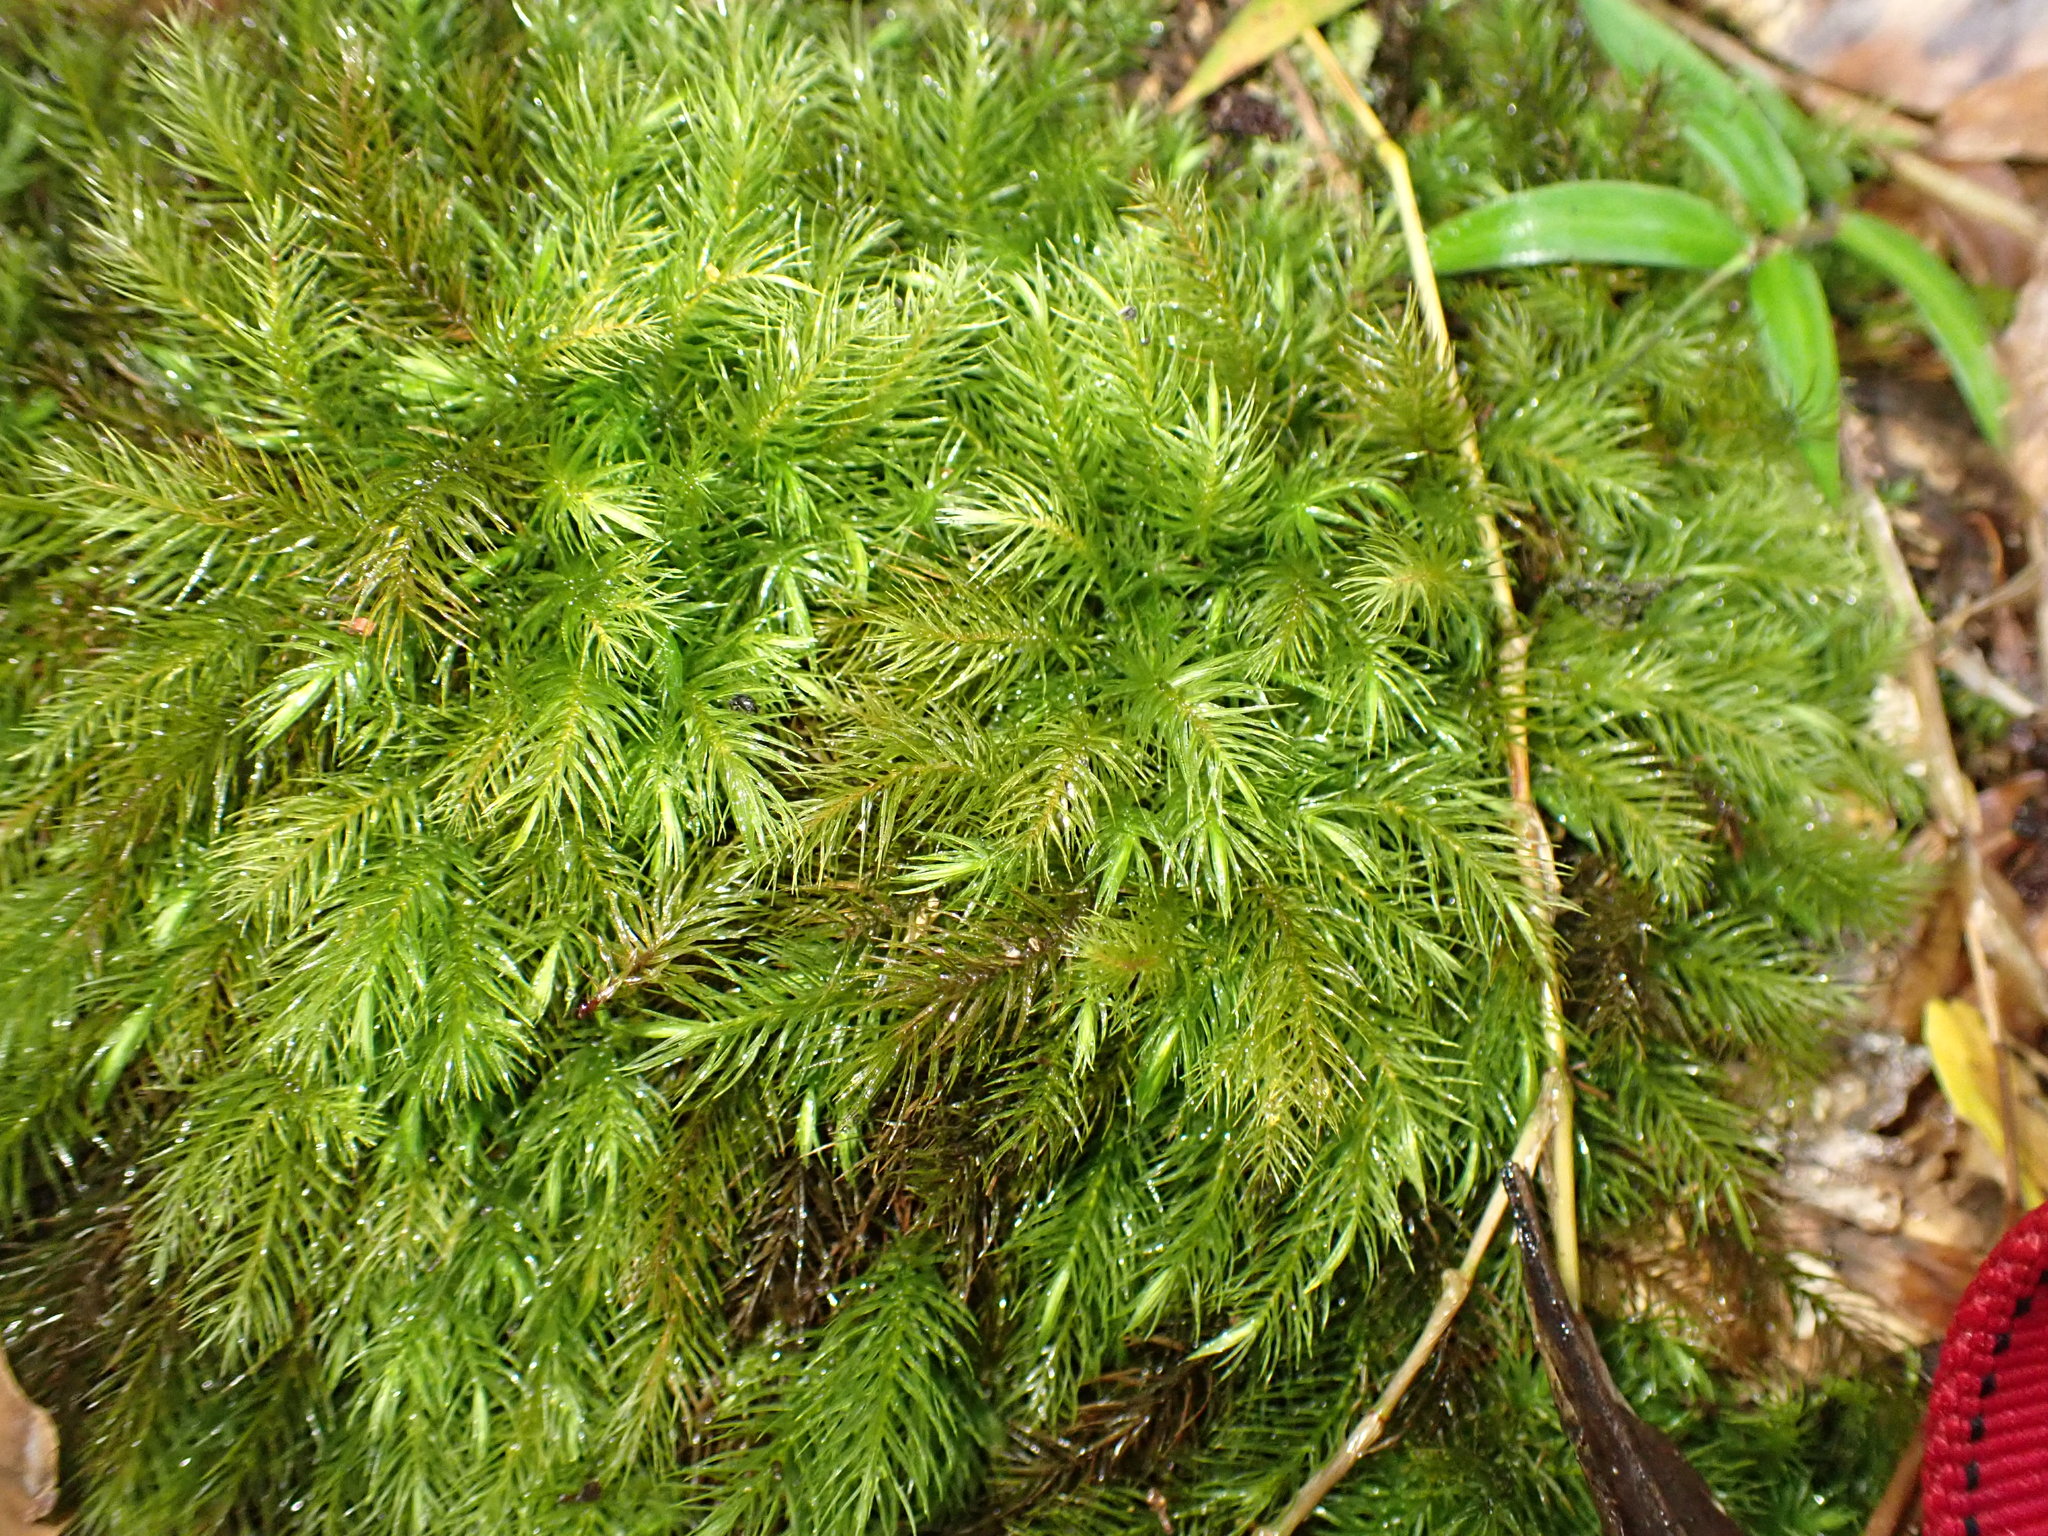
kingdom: Plantae
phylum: Bryophyta
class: Bryopsida
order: Rhizogoniales
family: Calomniaceae
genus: Pyrrhobryum
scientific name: Pyrrhobryum spiniforme
